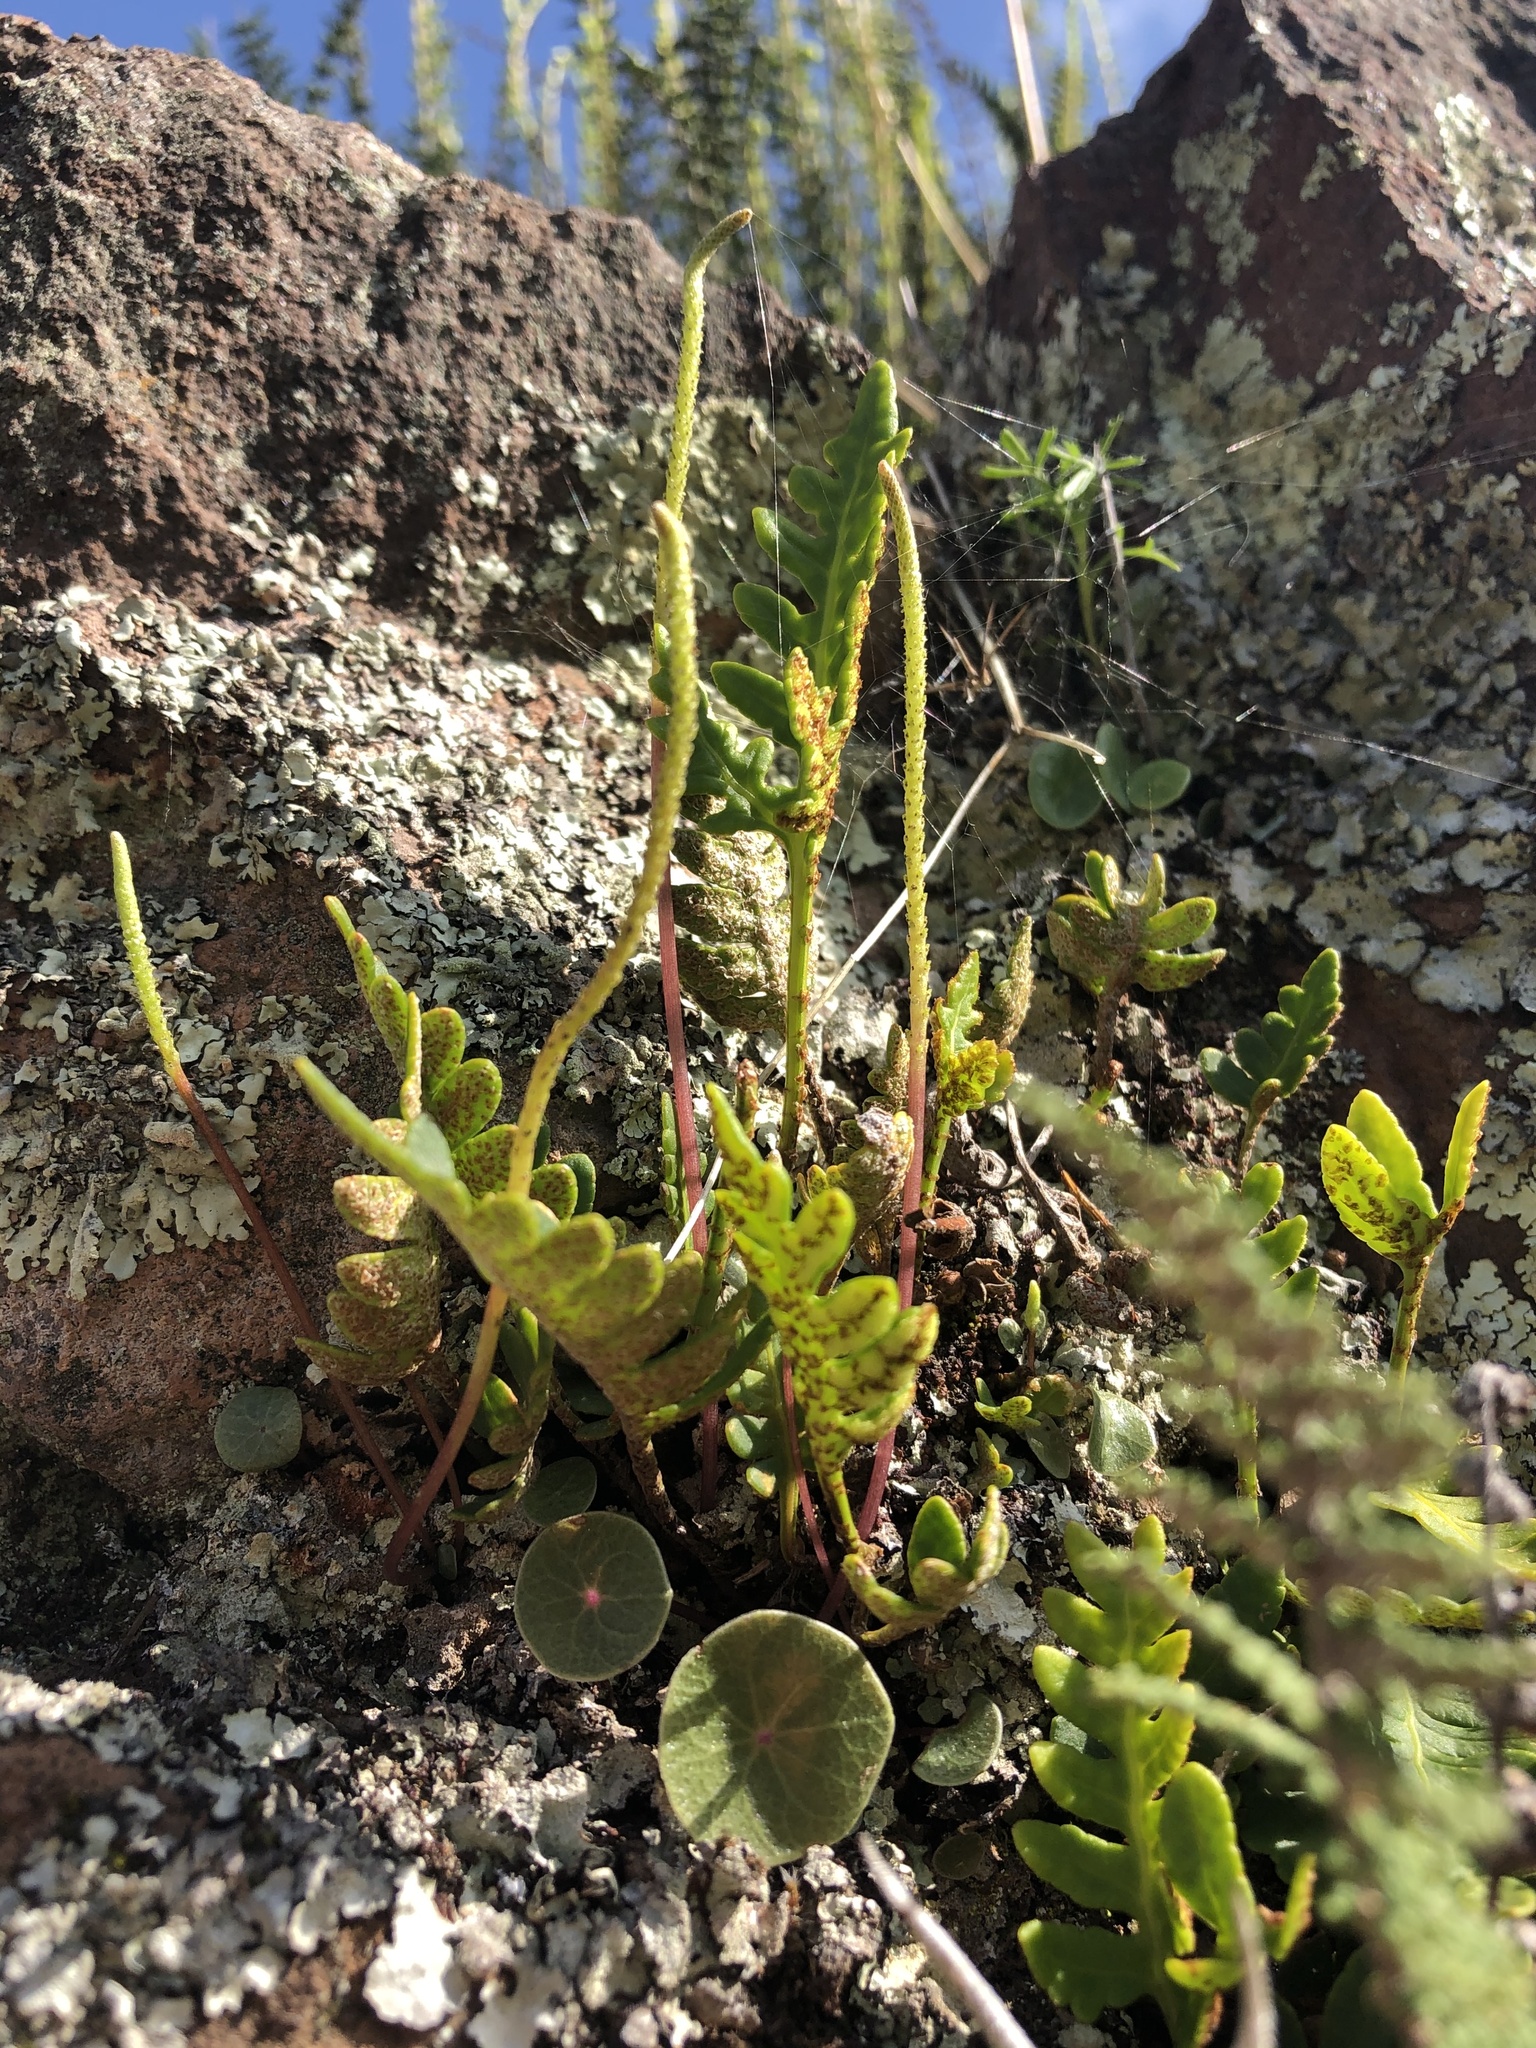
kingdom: Plantae
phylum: Tracheophyta
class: Polypodiopsida
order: Polypodiales
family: Polypodiaceae
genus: Pleopeltis
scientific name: Pleopeltis pycnocarpa
